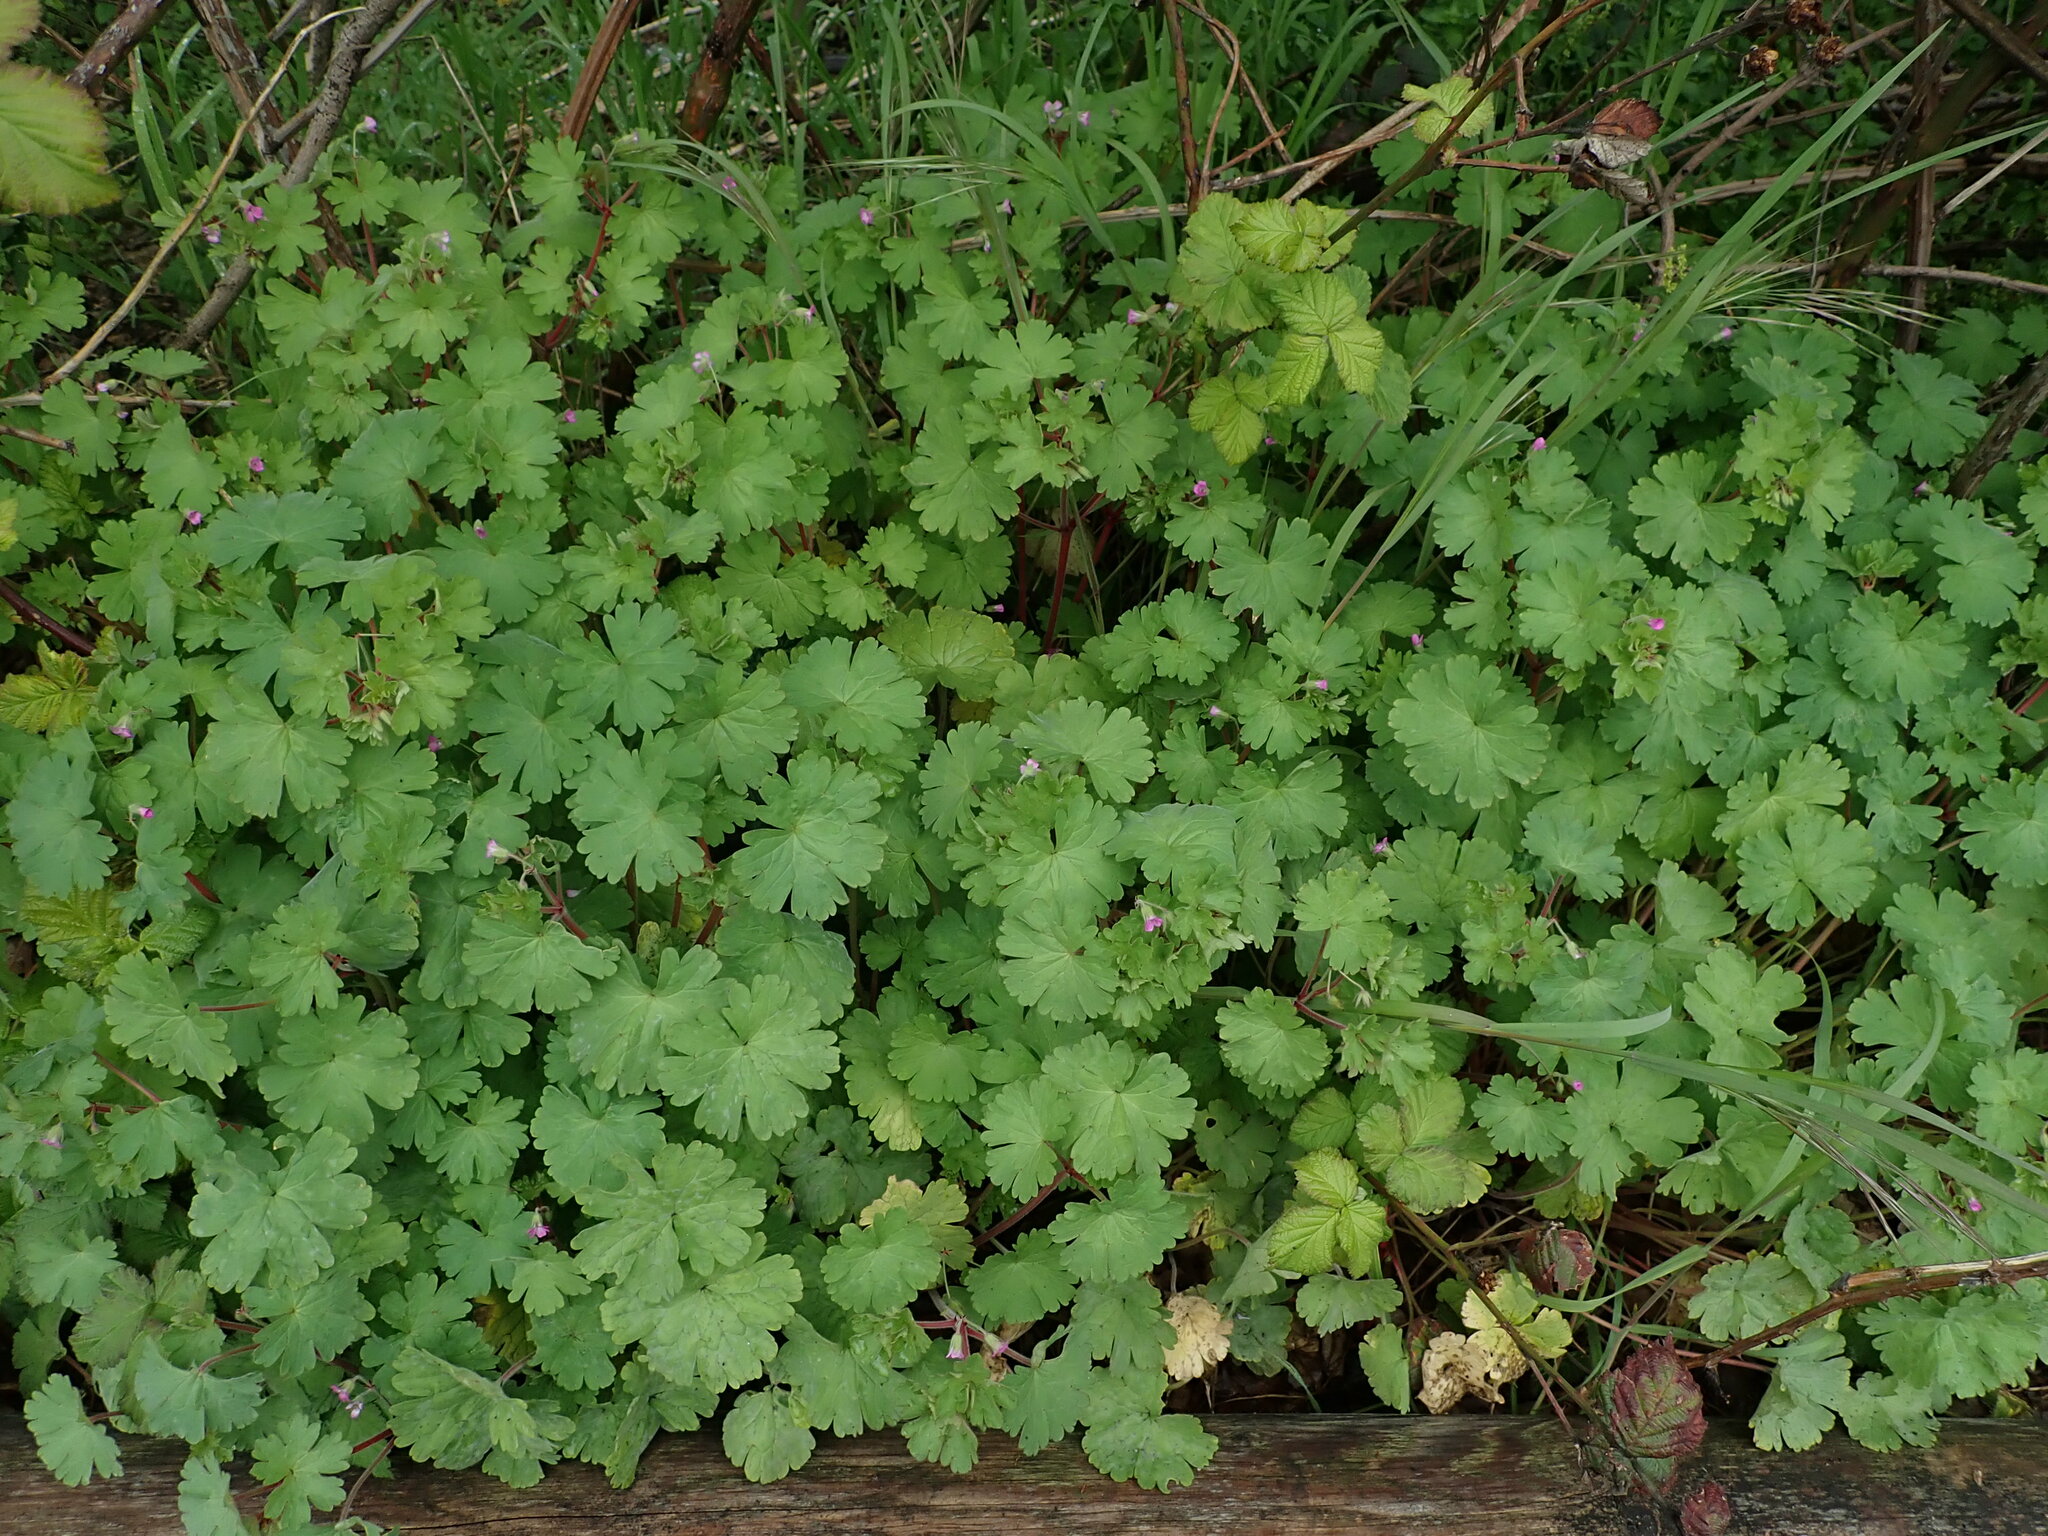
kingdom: Plantae
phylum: Tracheophyta
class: Magnoliopsida
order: Geraniales
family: Geraniaceae
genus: Geranium
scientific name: Geranium rotundifolium
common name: Round-leaved crane's-bill
